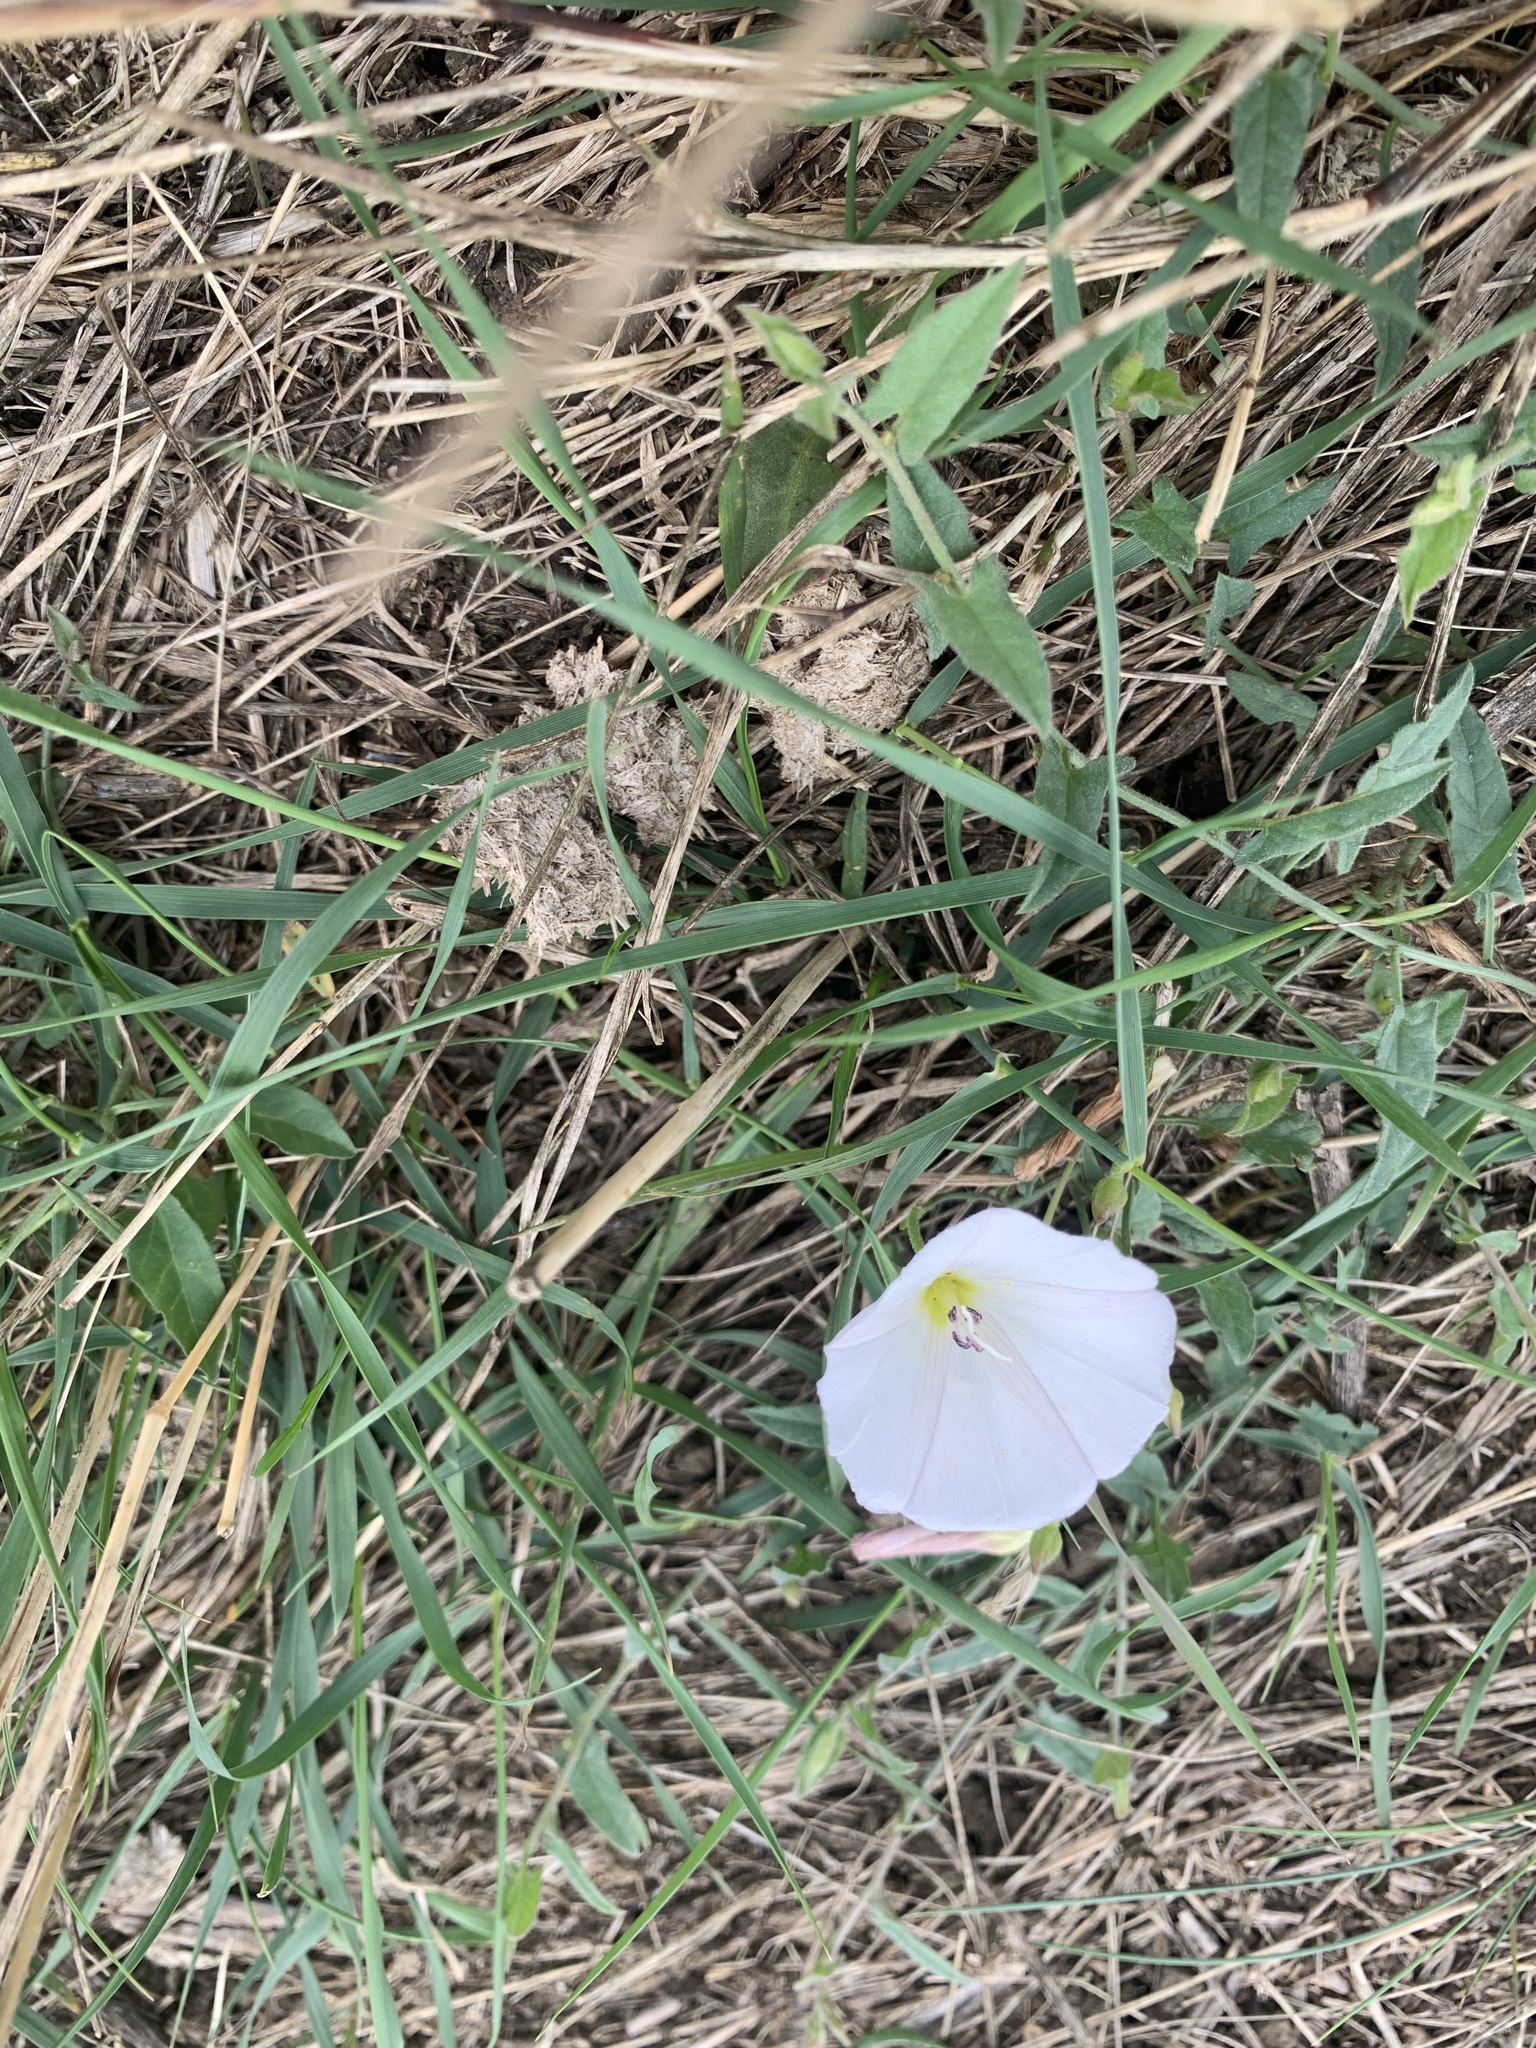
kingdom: Plantae
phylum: Tracheophyta
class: Magnoliopsida
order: Solanales
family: Convolvulaceae
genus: Convolvulus
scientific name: Convolvulus arvensis
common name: Field bindweed
